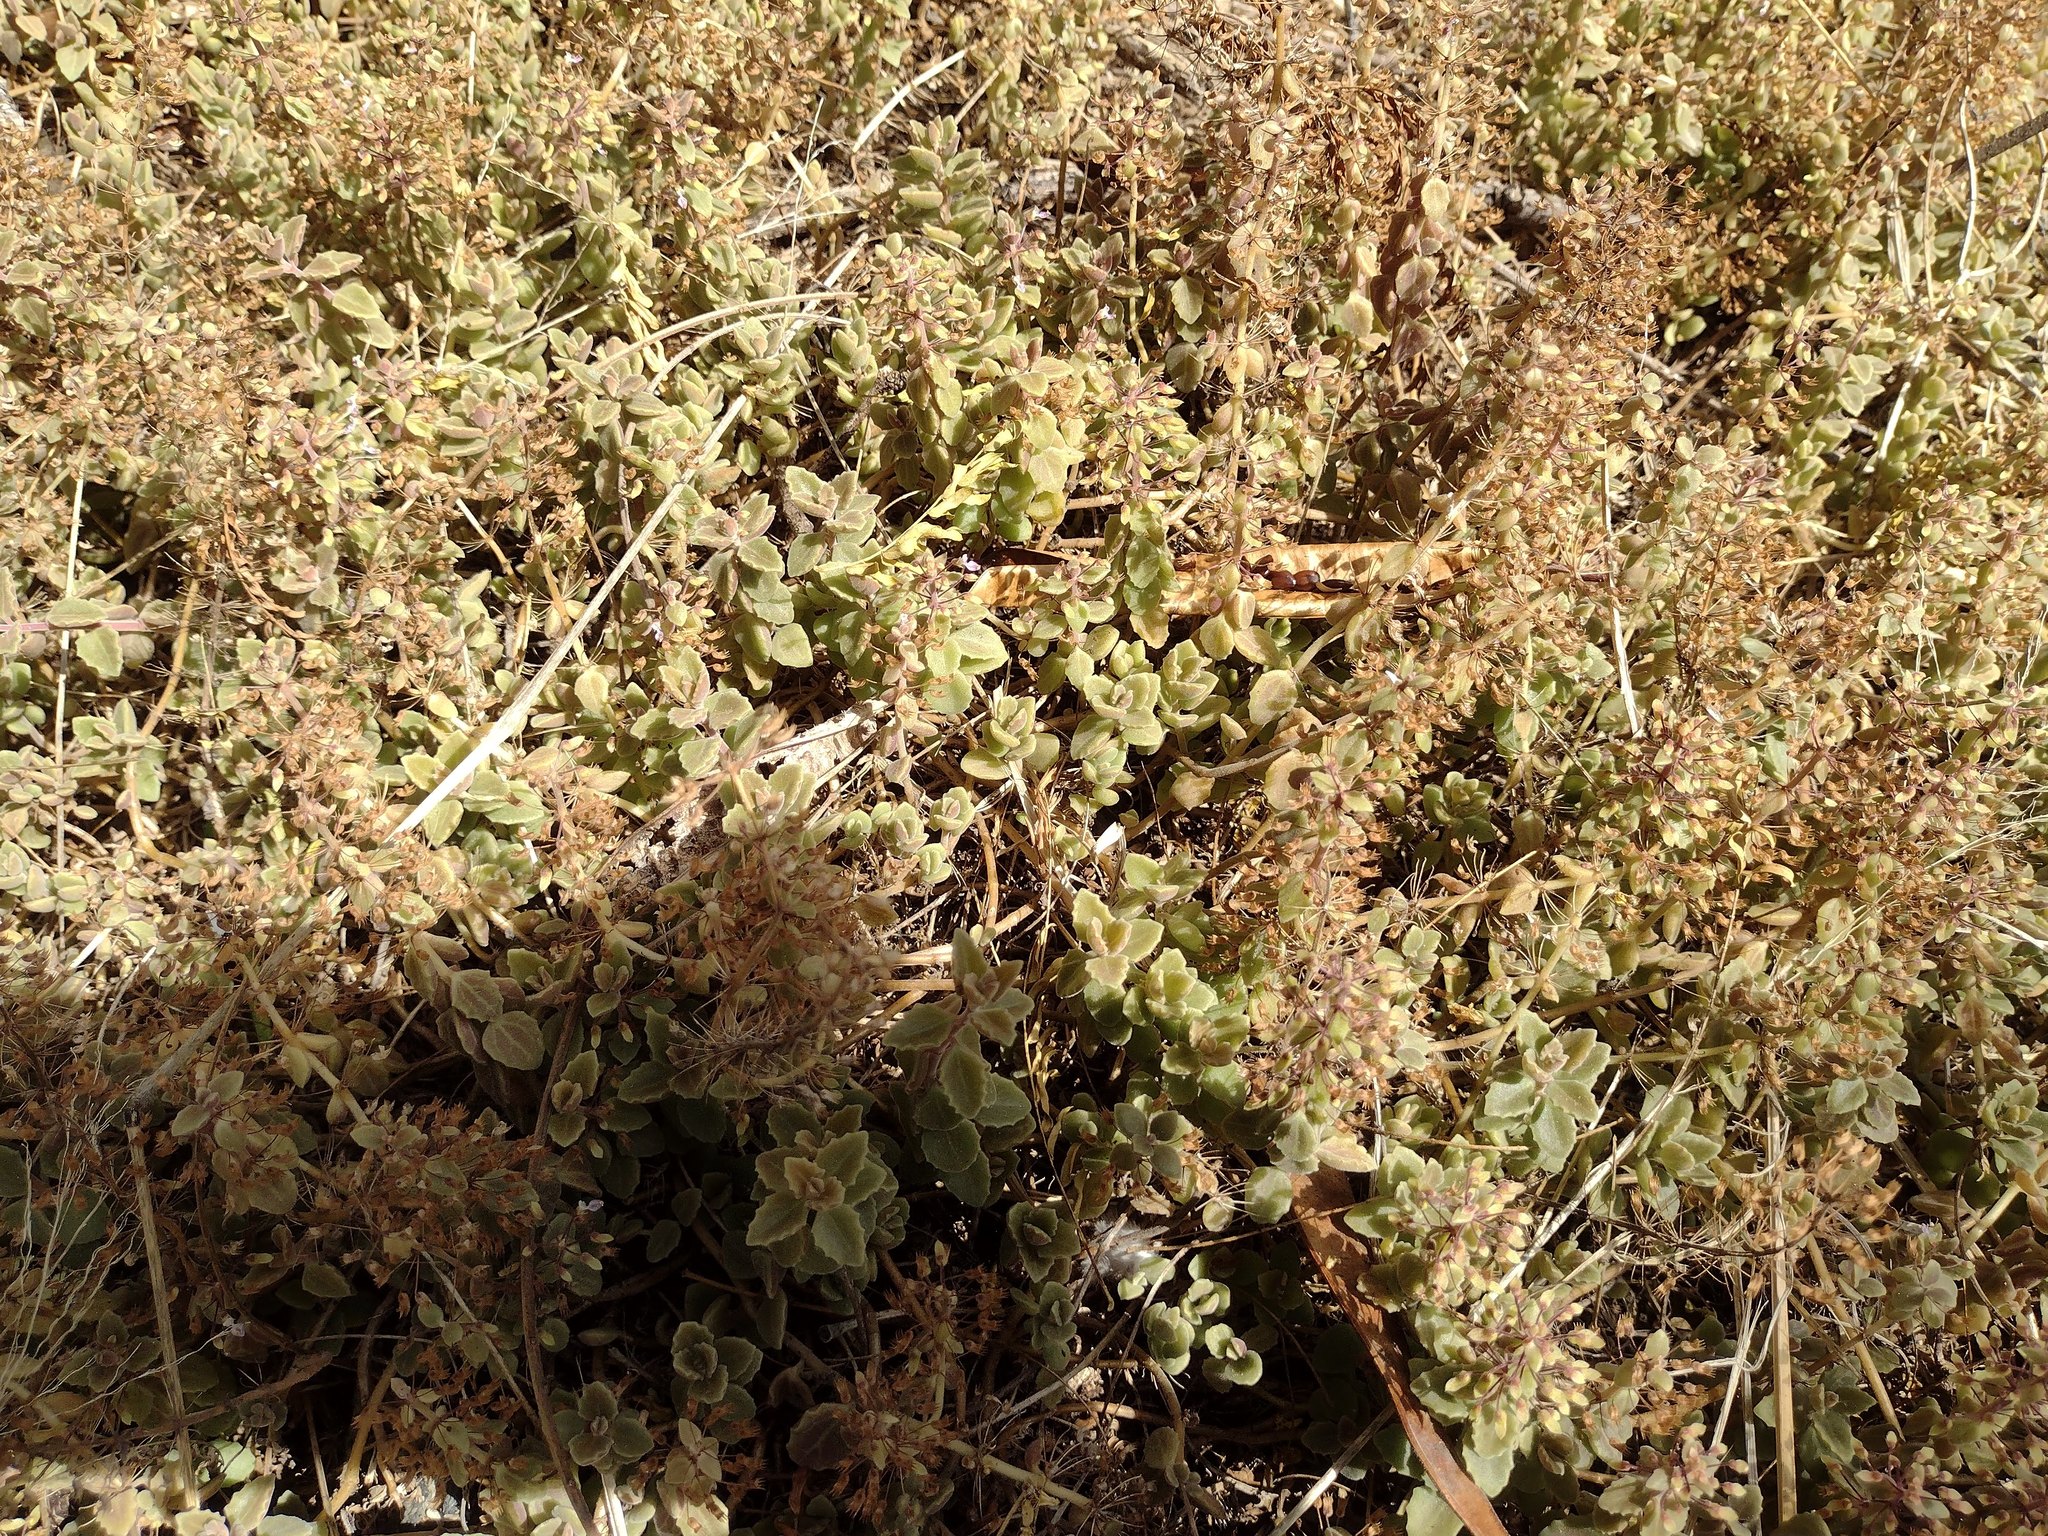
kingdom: Plantae
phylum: Tracheophyta
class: Magnoliopsida
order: Lamiales
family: Lamiaceae
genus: Coleus
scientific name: Coleus prostratus
